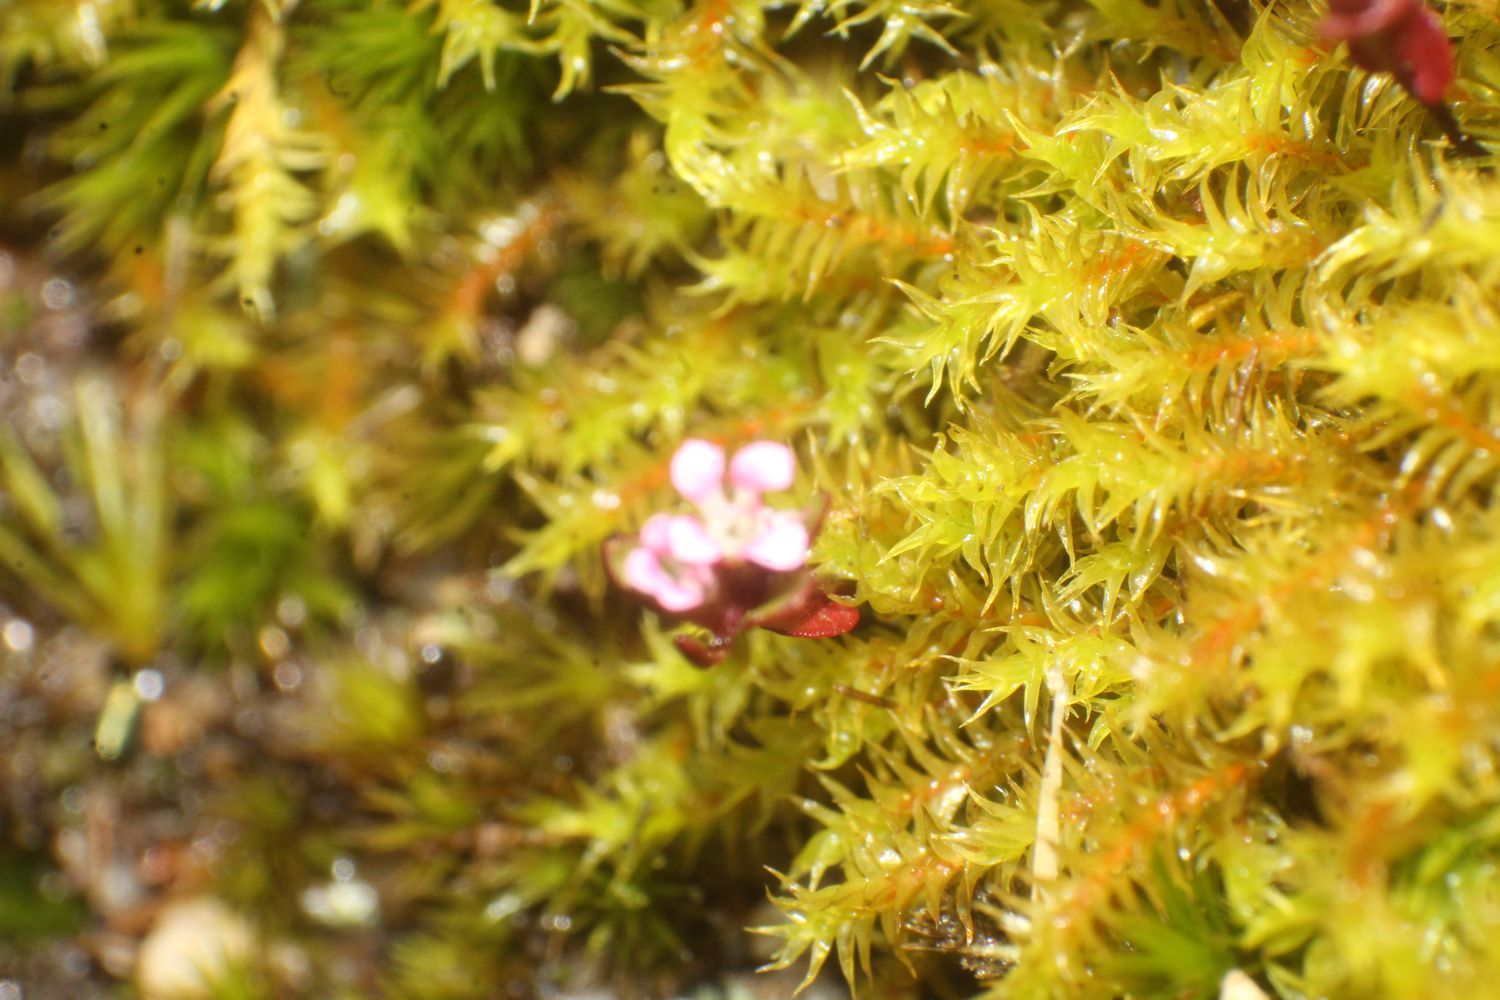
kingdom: Plantae
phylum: Tracheophyta
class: Magnoliopsida
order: Asterales
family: Stylidiaceae
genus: Levenhookia
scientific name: Levenhookia pusilla
